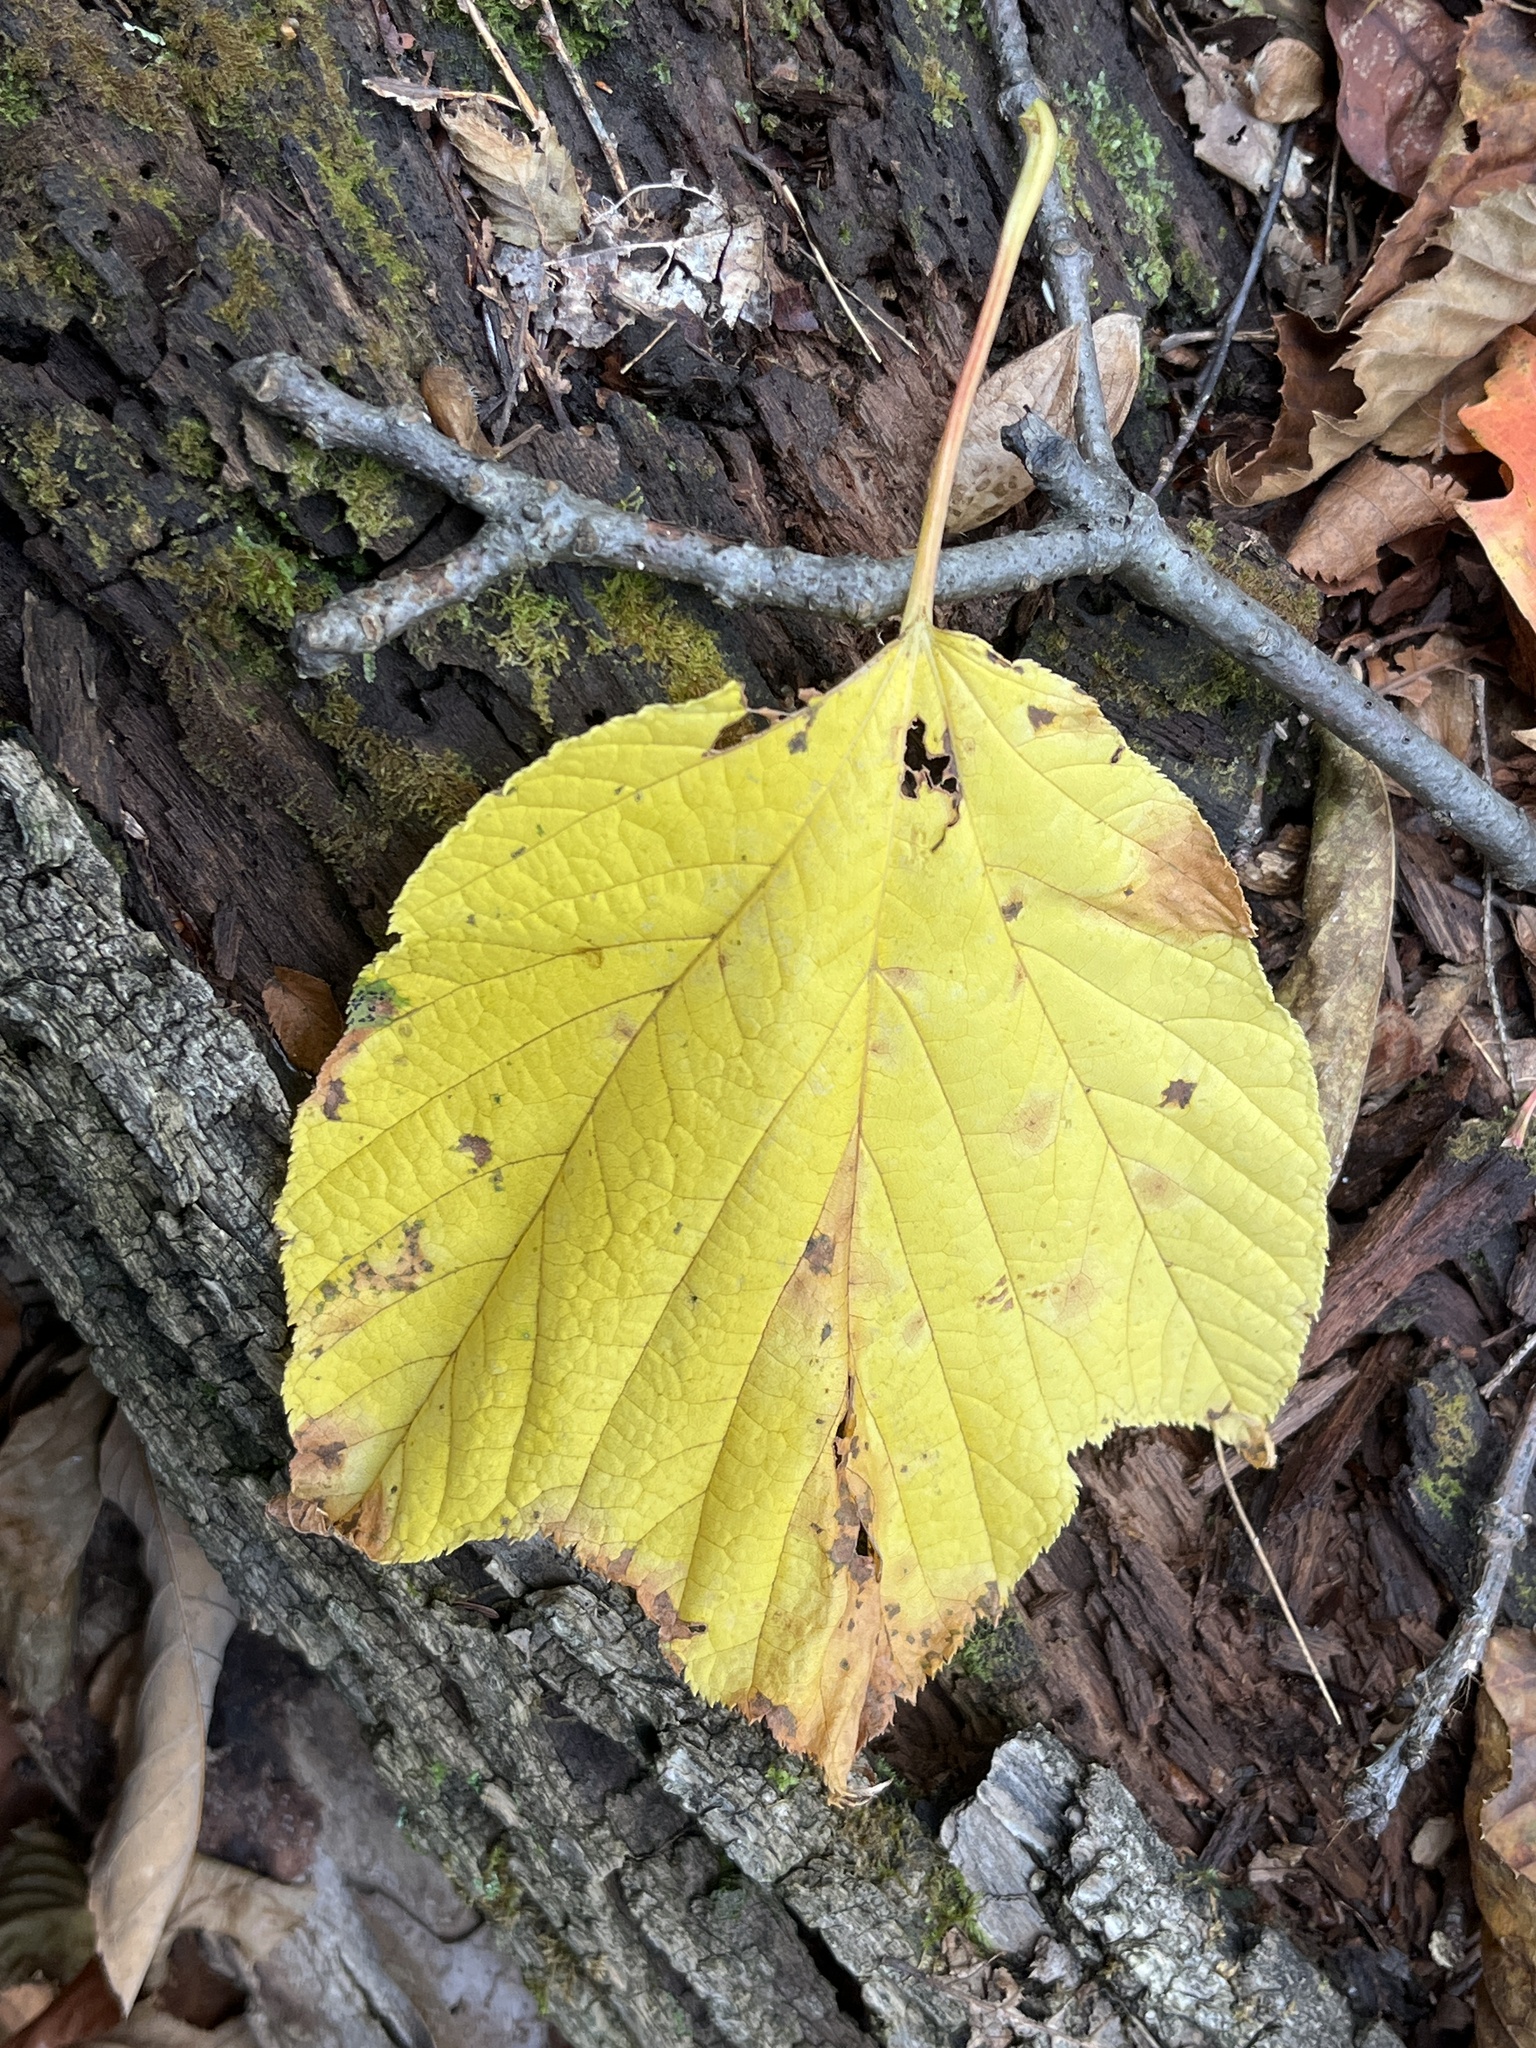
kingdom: Plantae
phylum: Tracheophyta
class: Magnoliopsida
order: Sapindales
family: Sapindaceae
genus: Acer
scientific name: Acer pensylvanicum
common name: Moosewood
